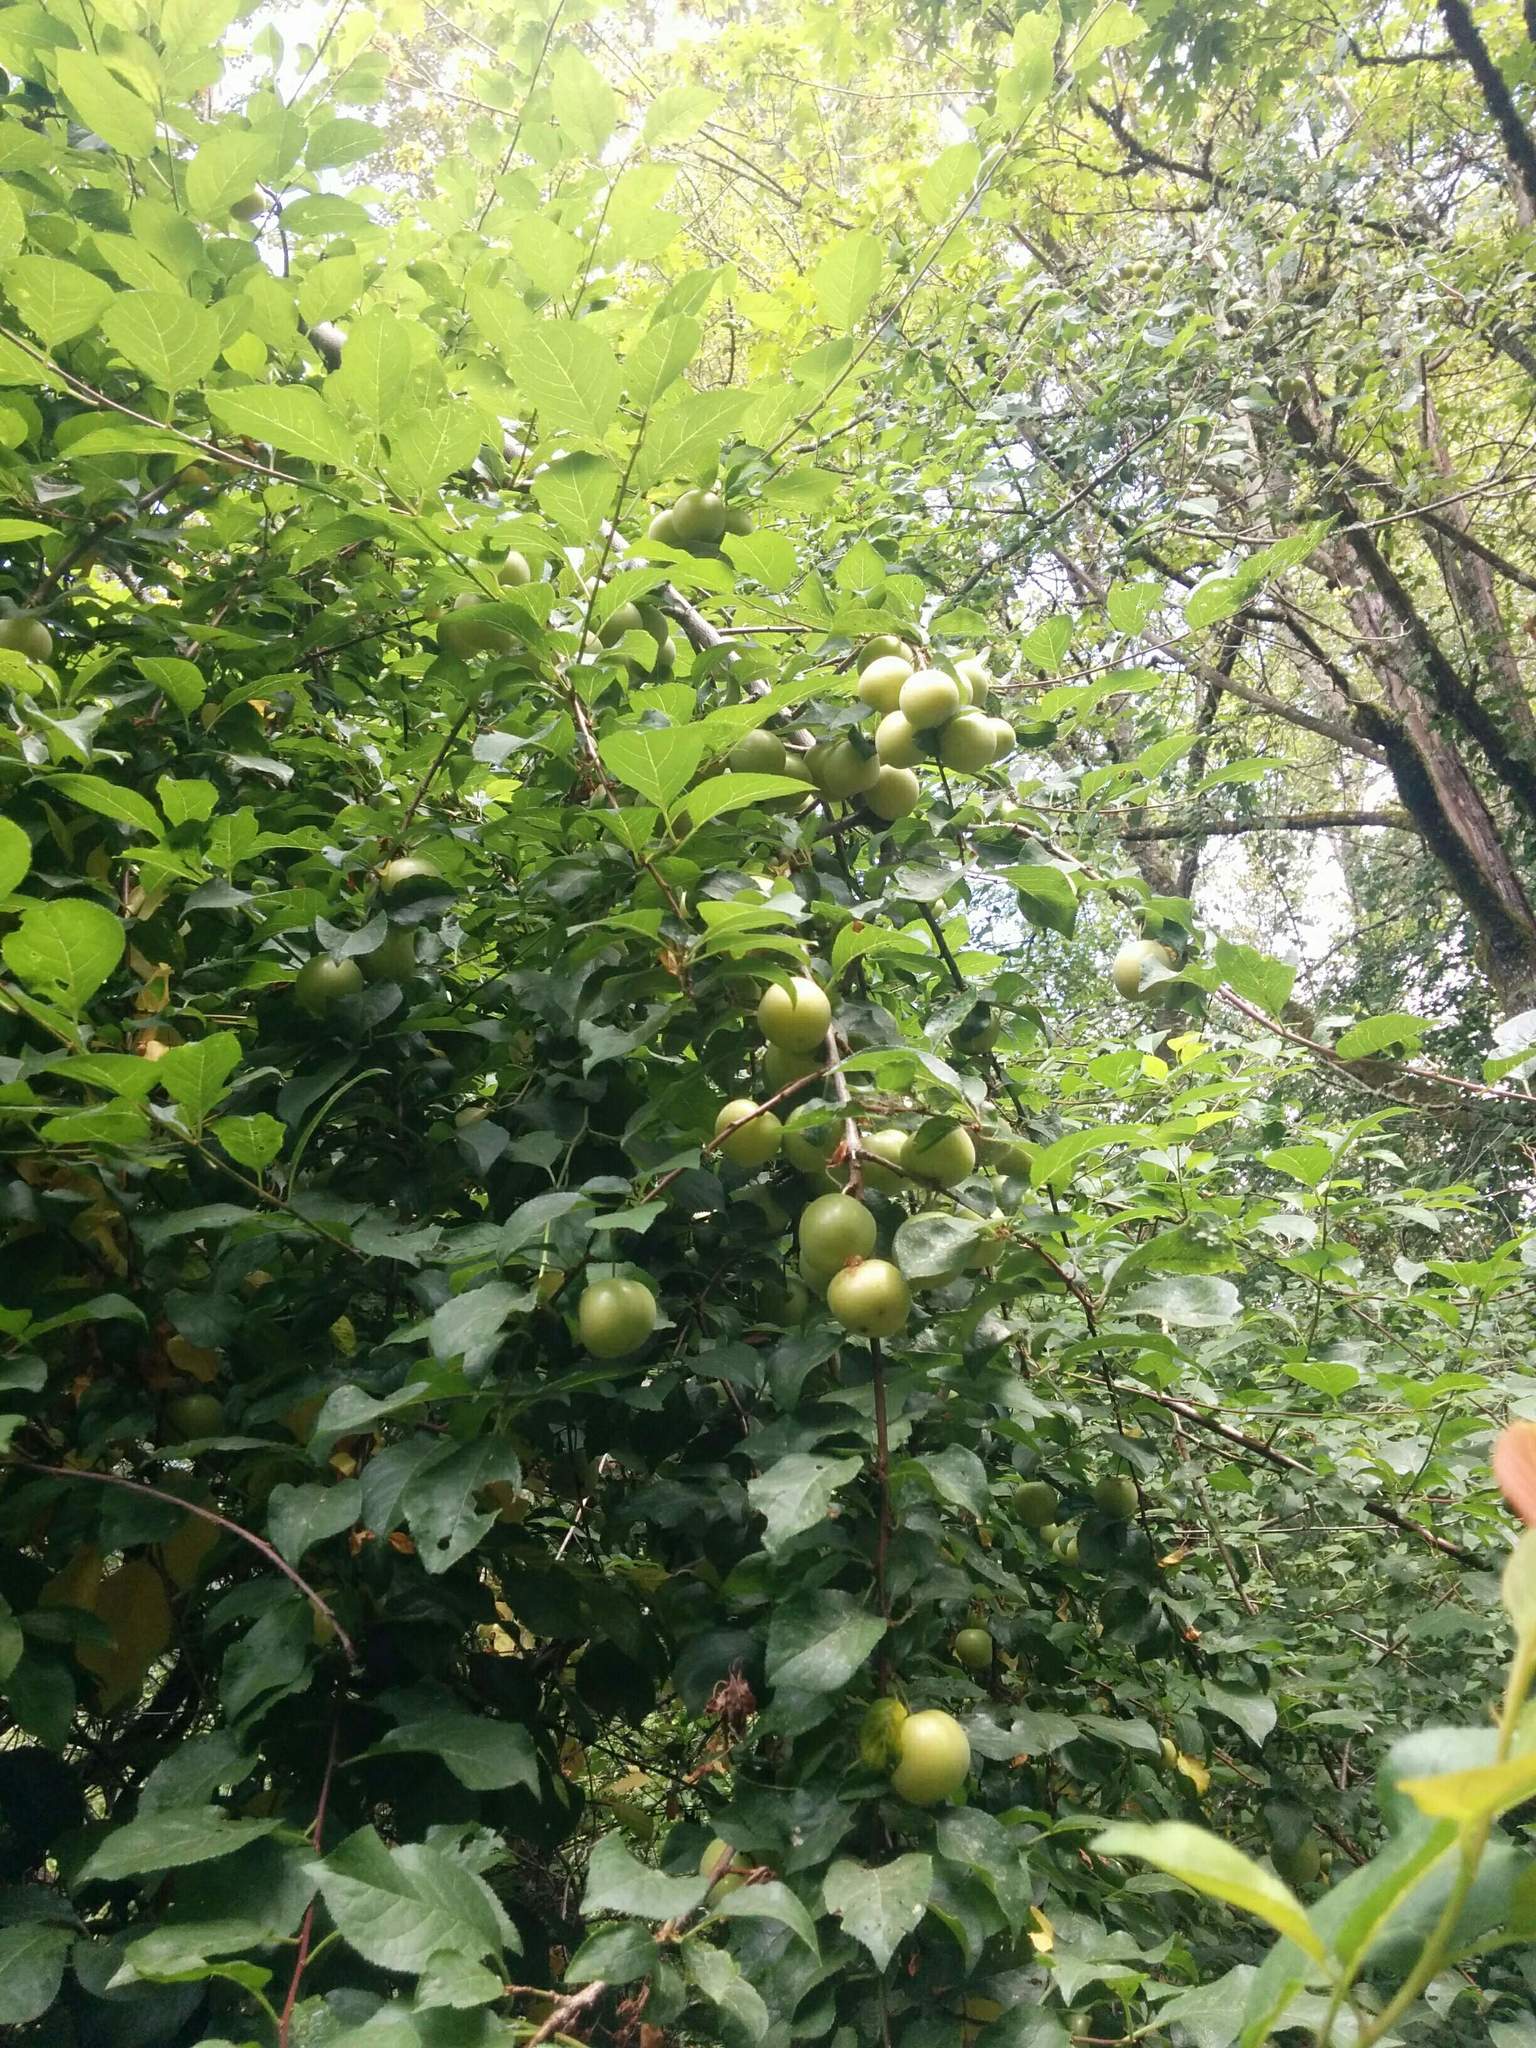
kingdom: Plantae
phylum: Tracheophyta
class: Magnoliopsida
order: Rosales
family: Rosaceae
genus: Prunus
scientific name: Prunus cerasifera
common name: Cherry plum
